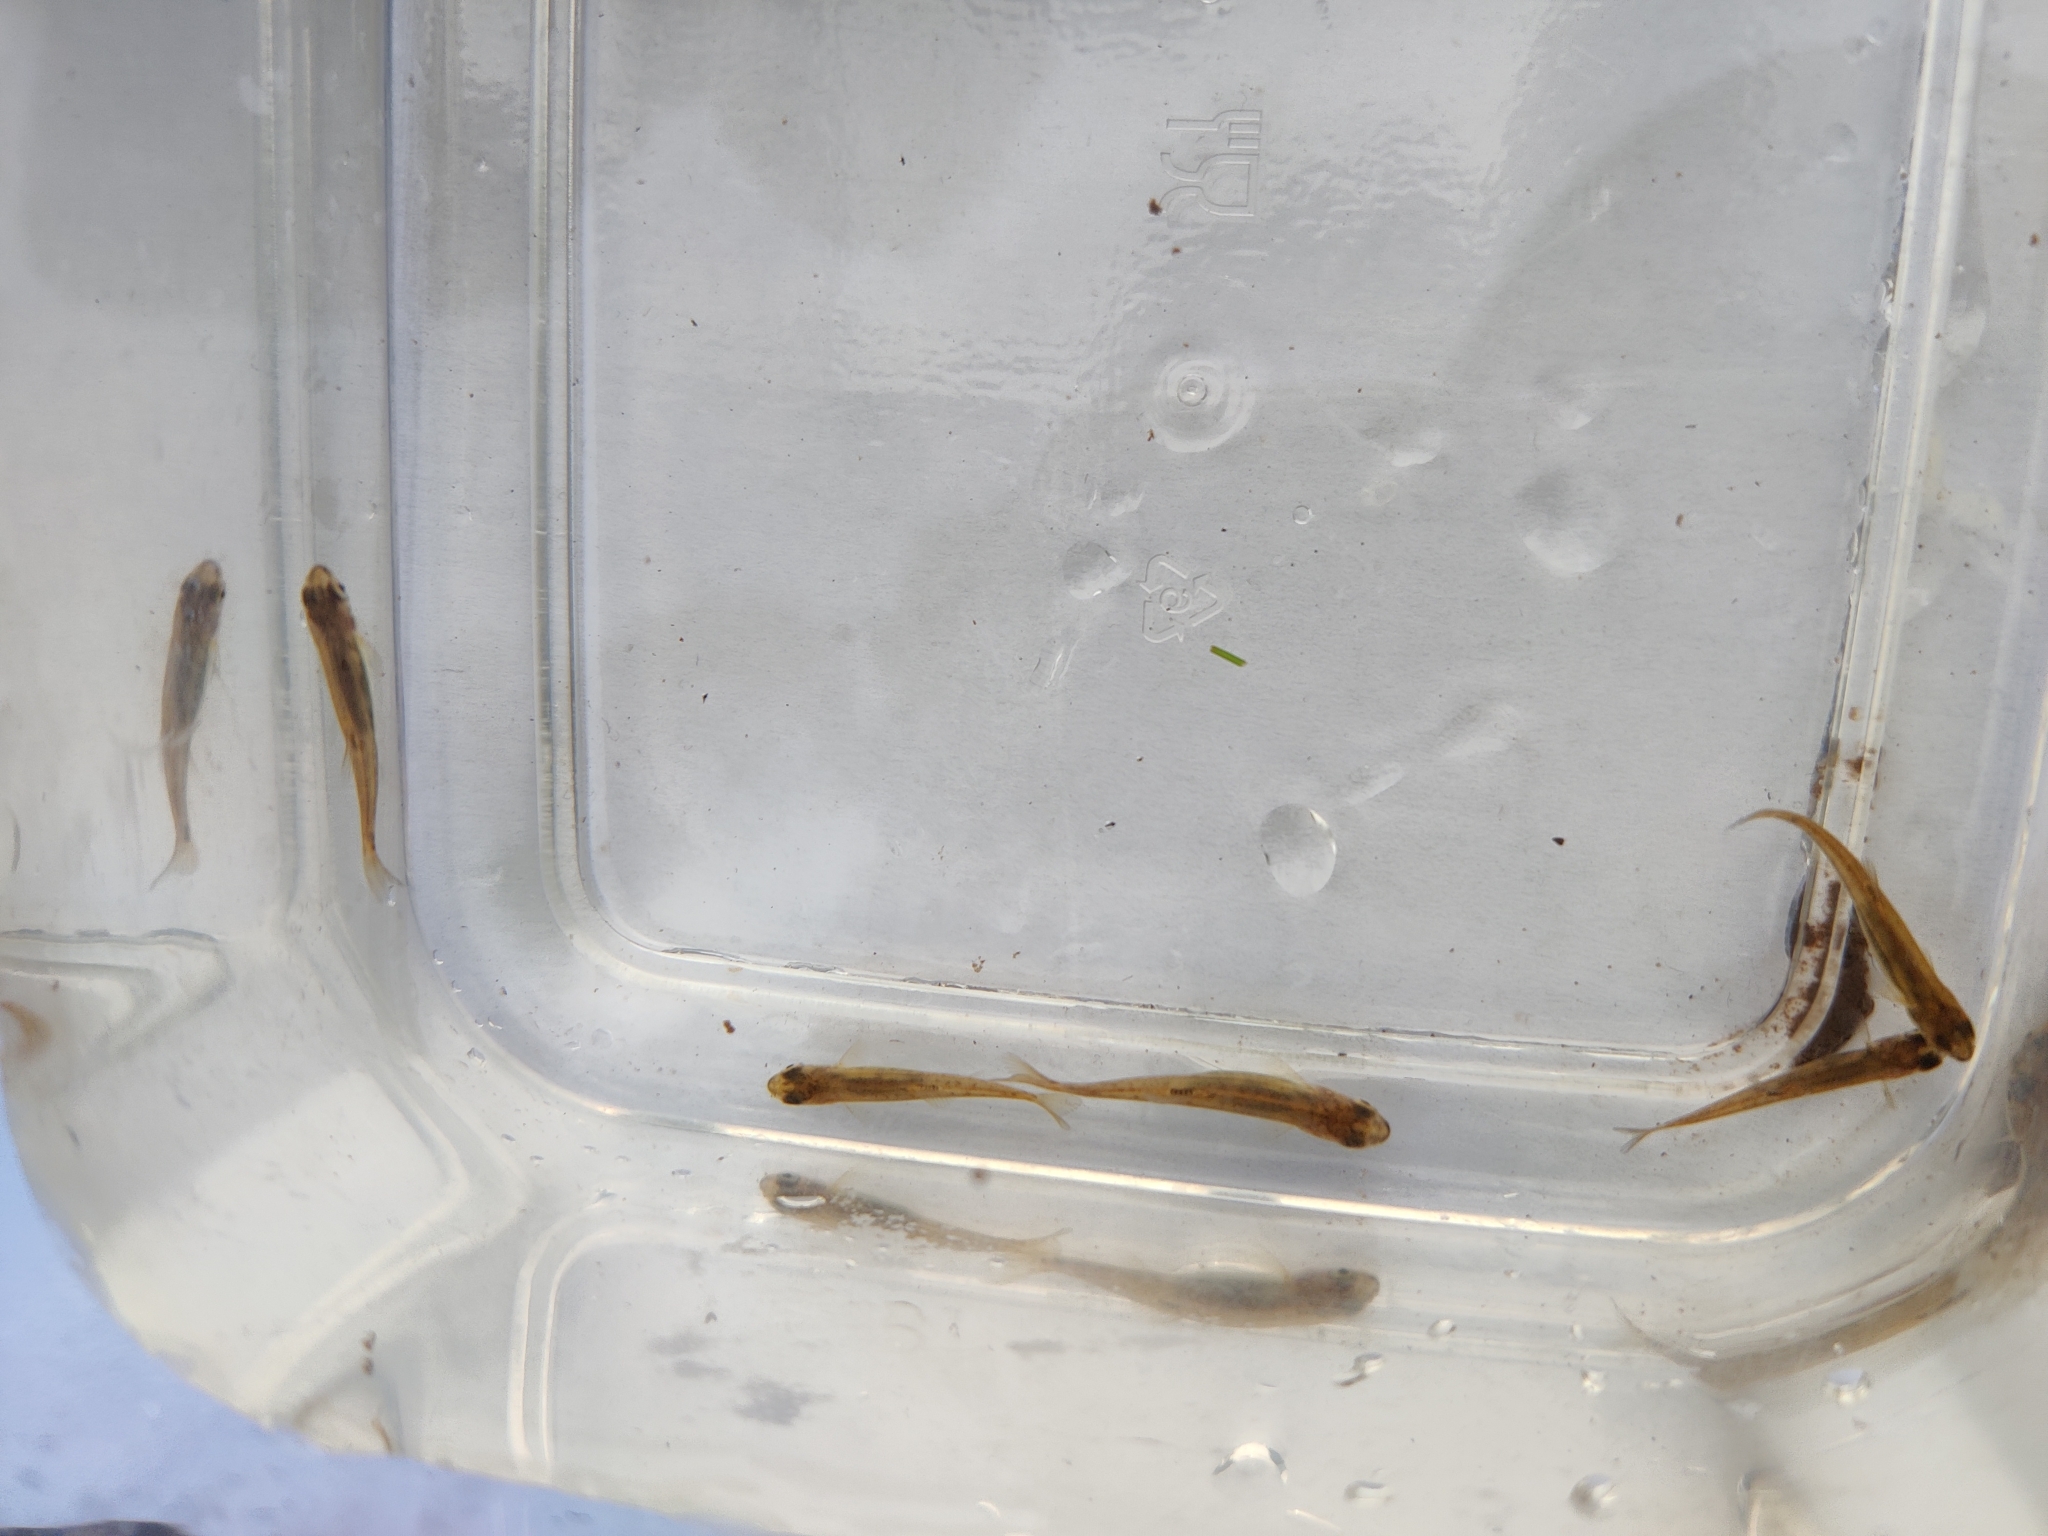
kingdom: Animalia
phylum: Chordata
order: Cypriniformes
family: Cyprinidae
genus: Phoxinus
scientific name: Phoxinus phoxinus
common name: Minnow
